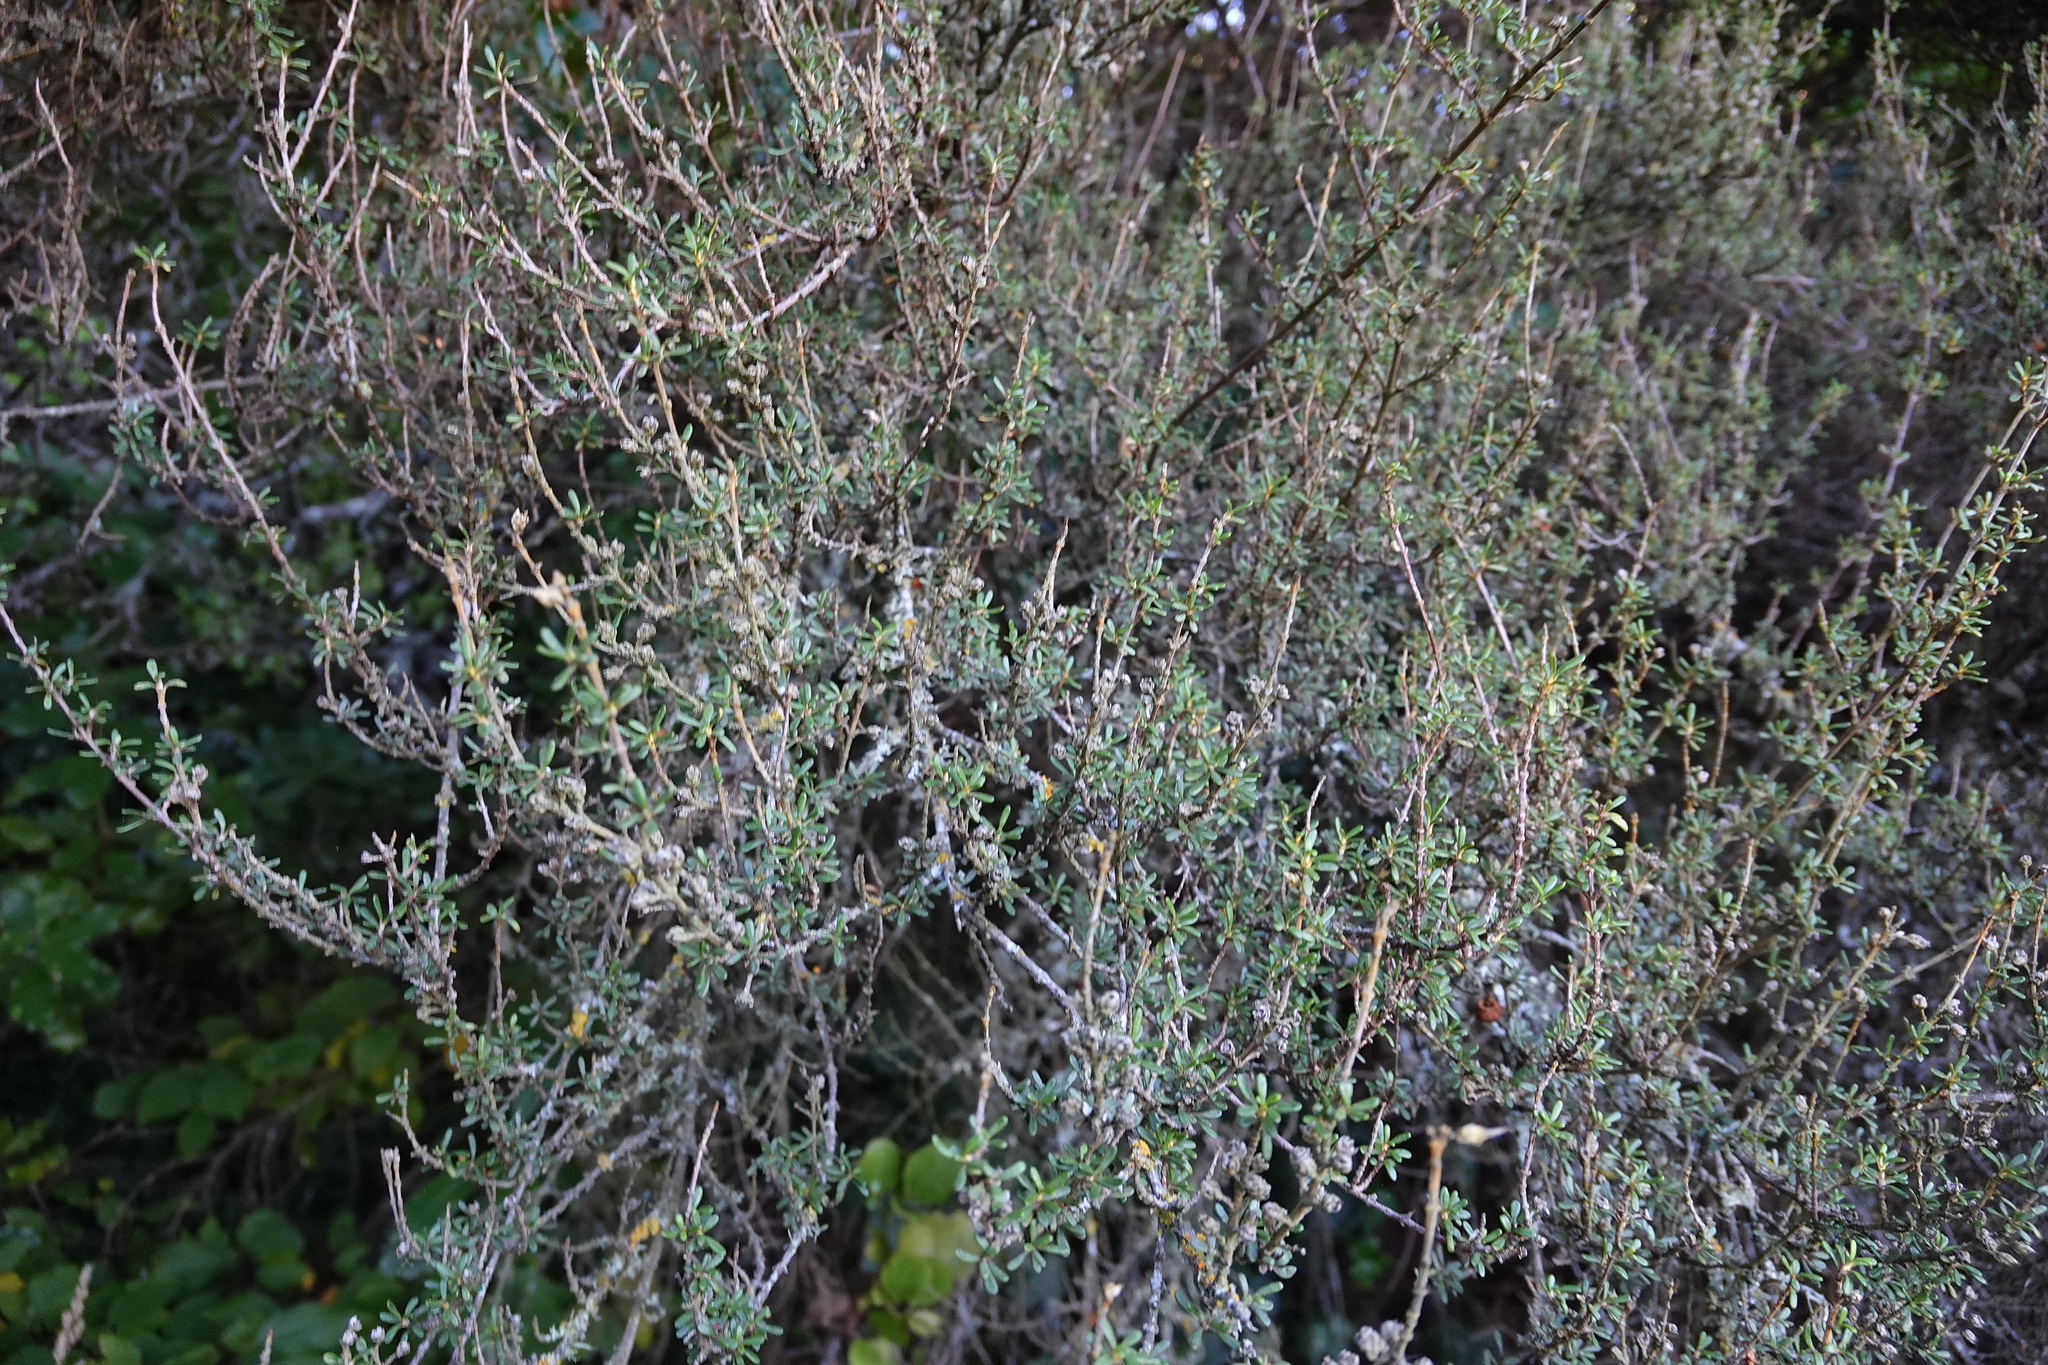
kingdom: Plantae
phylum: Tracheophyta
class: Magnoliopsida
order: Asterales
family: Asteraceae
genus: Olearia
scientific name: Olearia solandri
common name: Coastal daisybush
